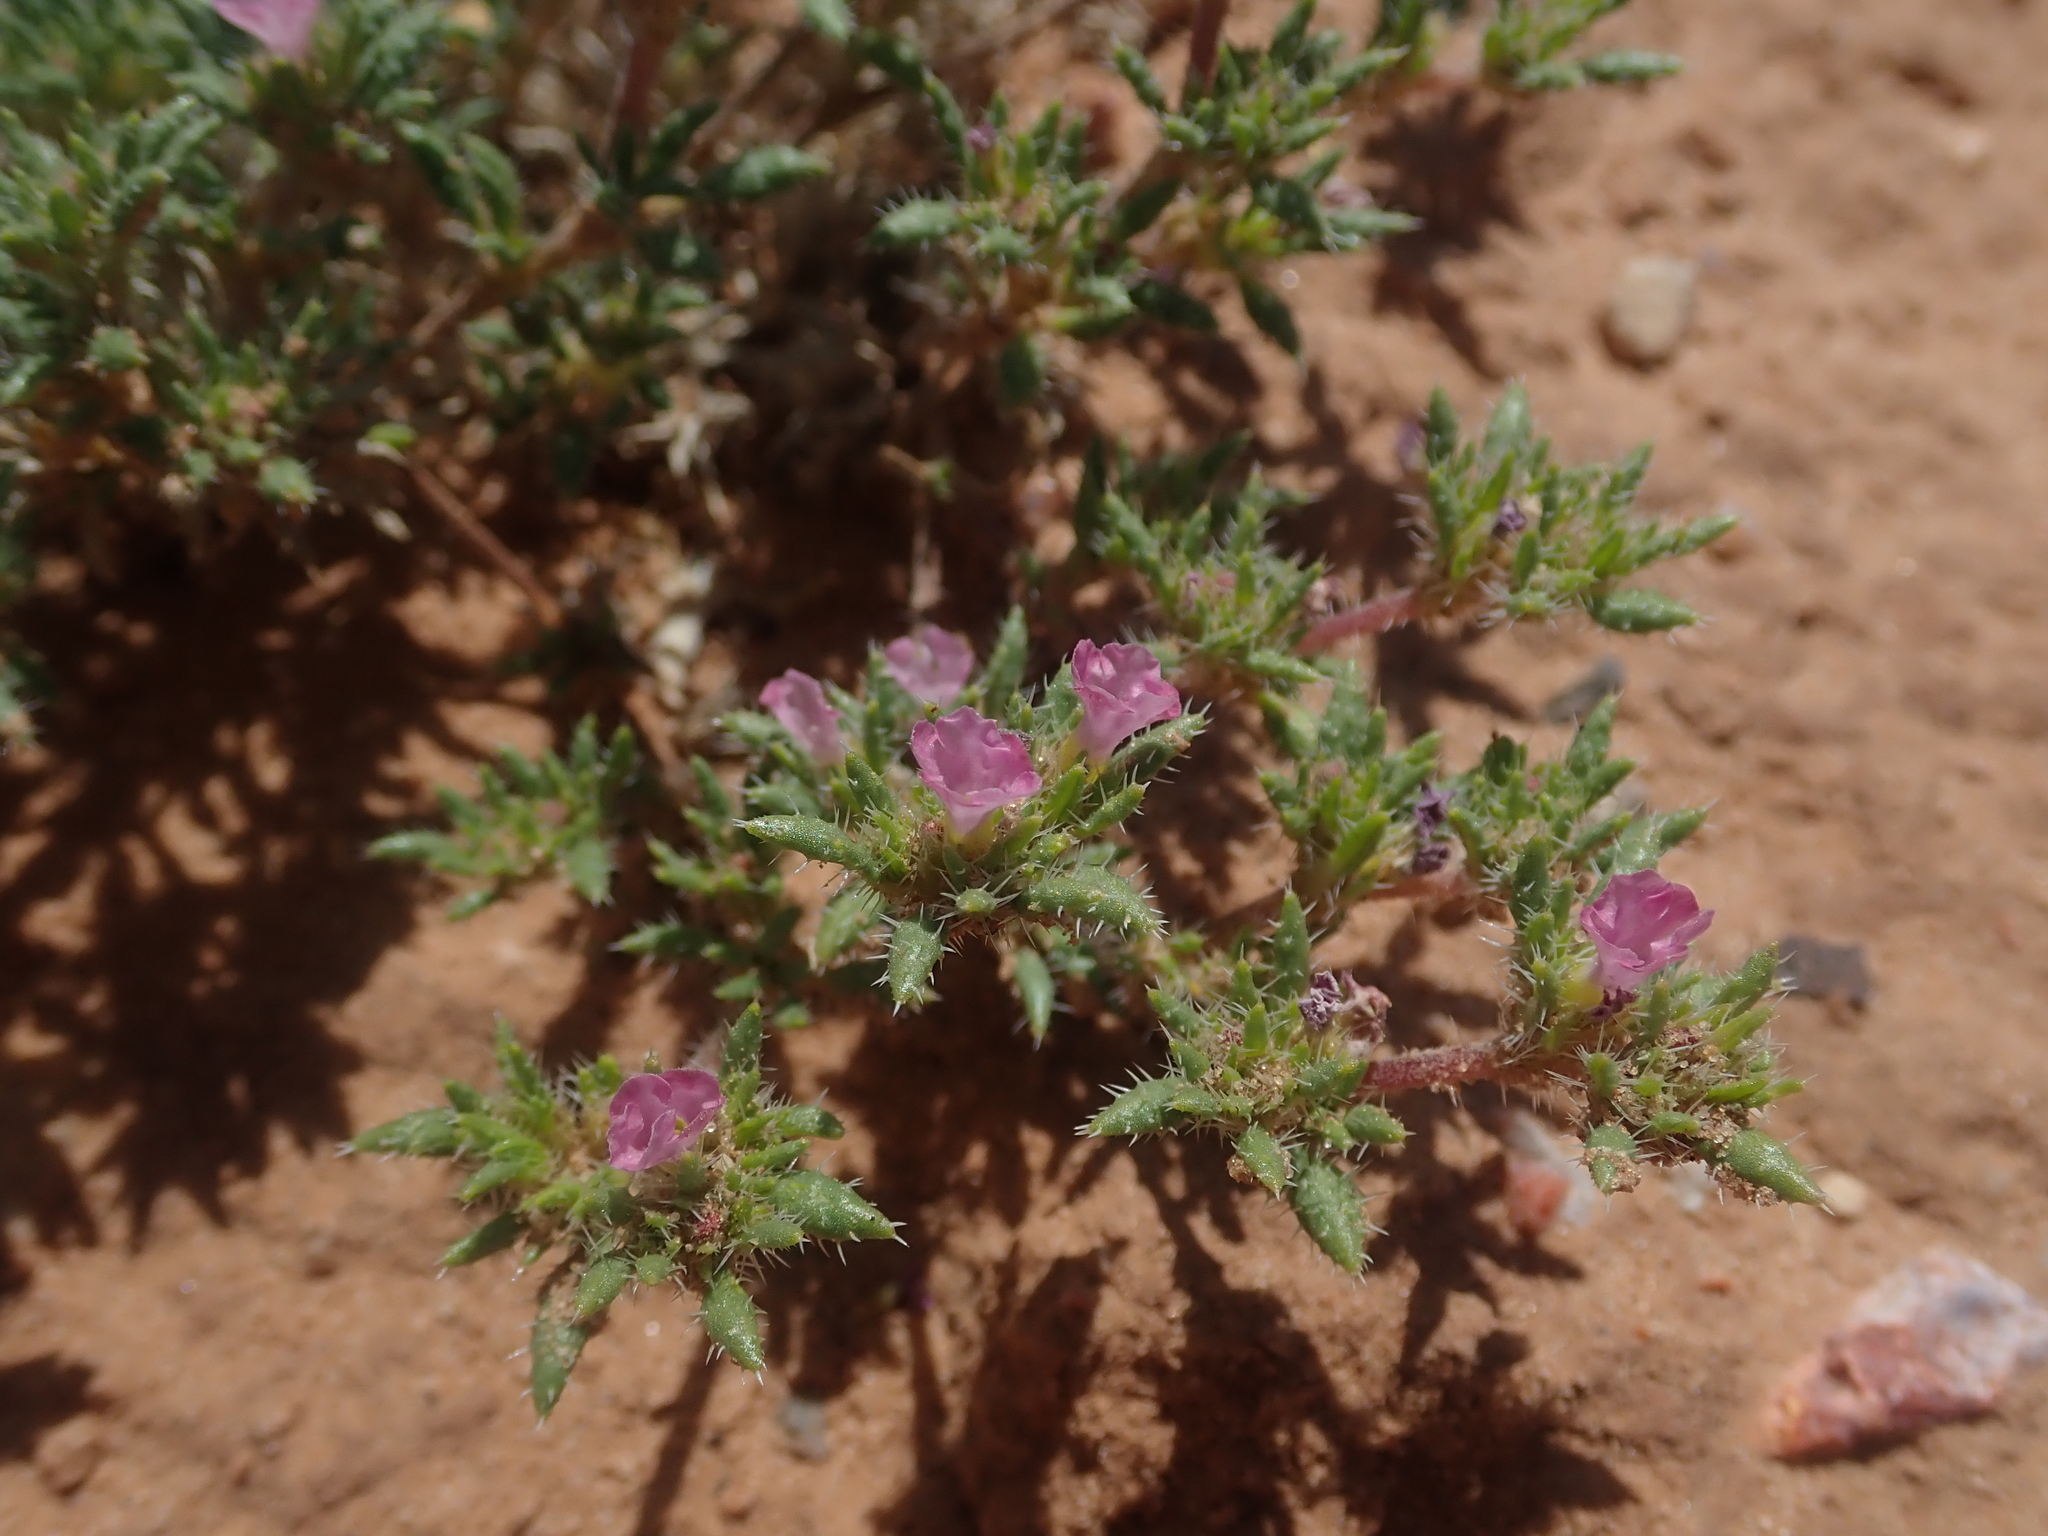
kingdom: Plantae
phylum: Tracheophyta
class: Magnoliopsida
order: Boraginales
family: Ehretiaceae
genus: Tiquilia
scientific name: Tiquilia latior
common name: Matted tiquilia
